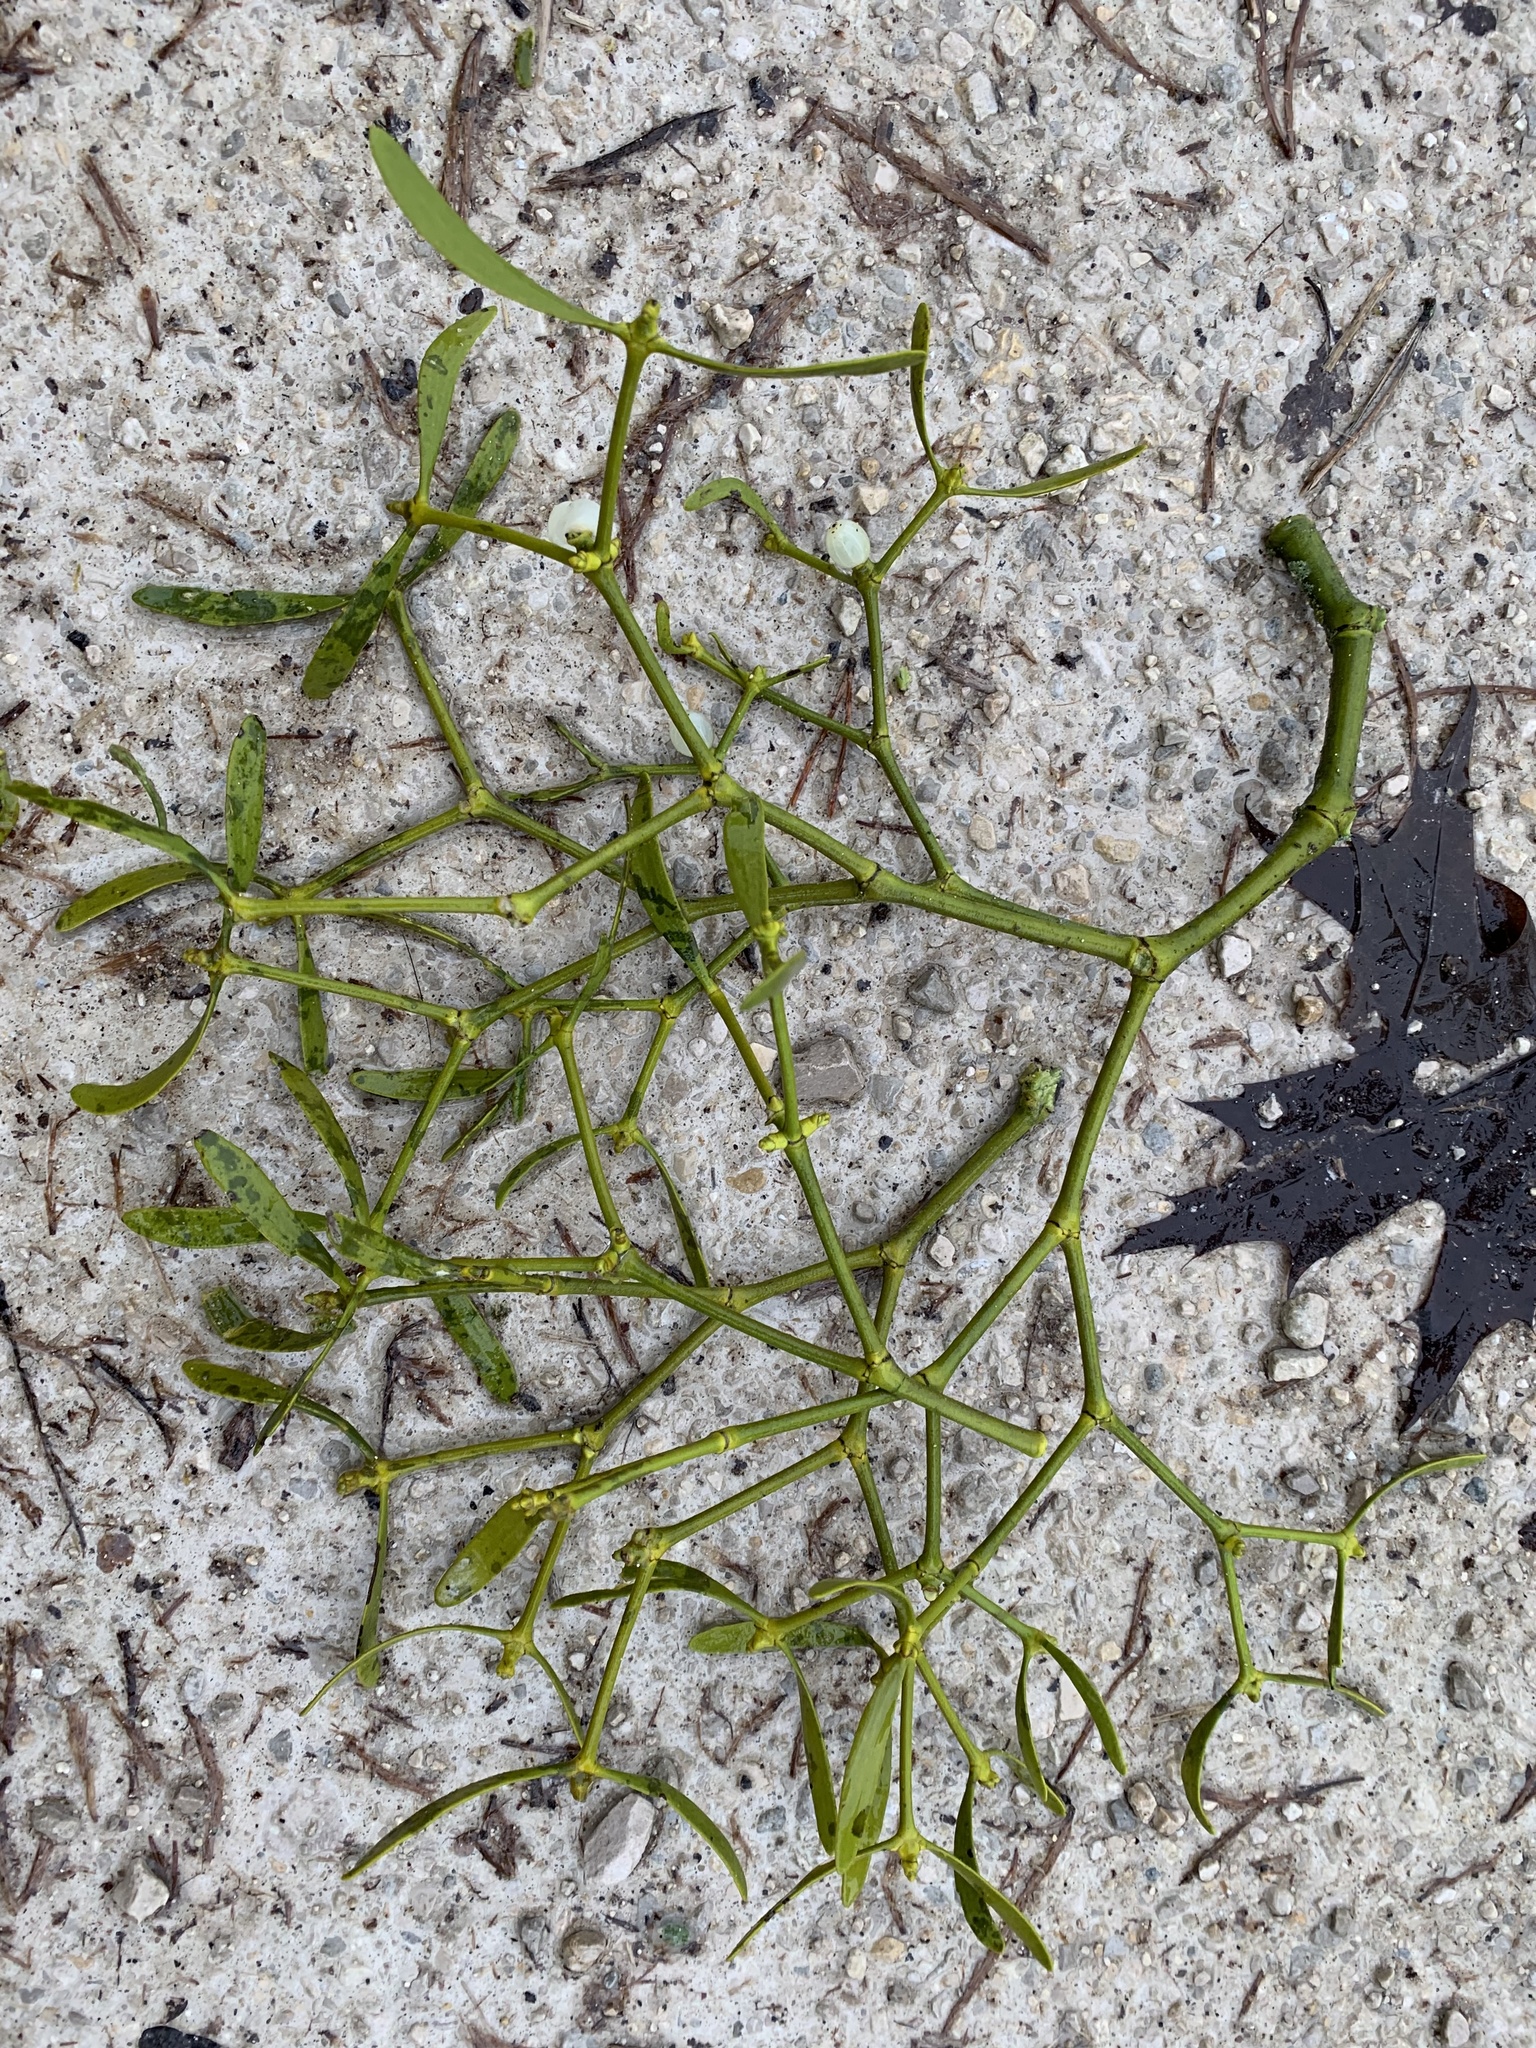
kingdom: Plantae
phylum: Tracheophyta
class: Magnoliopsida
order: Santalales
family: Viscaceae
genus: Viscum
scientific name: Viscum laxum
